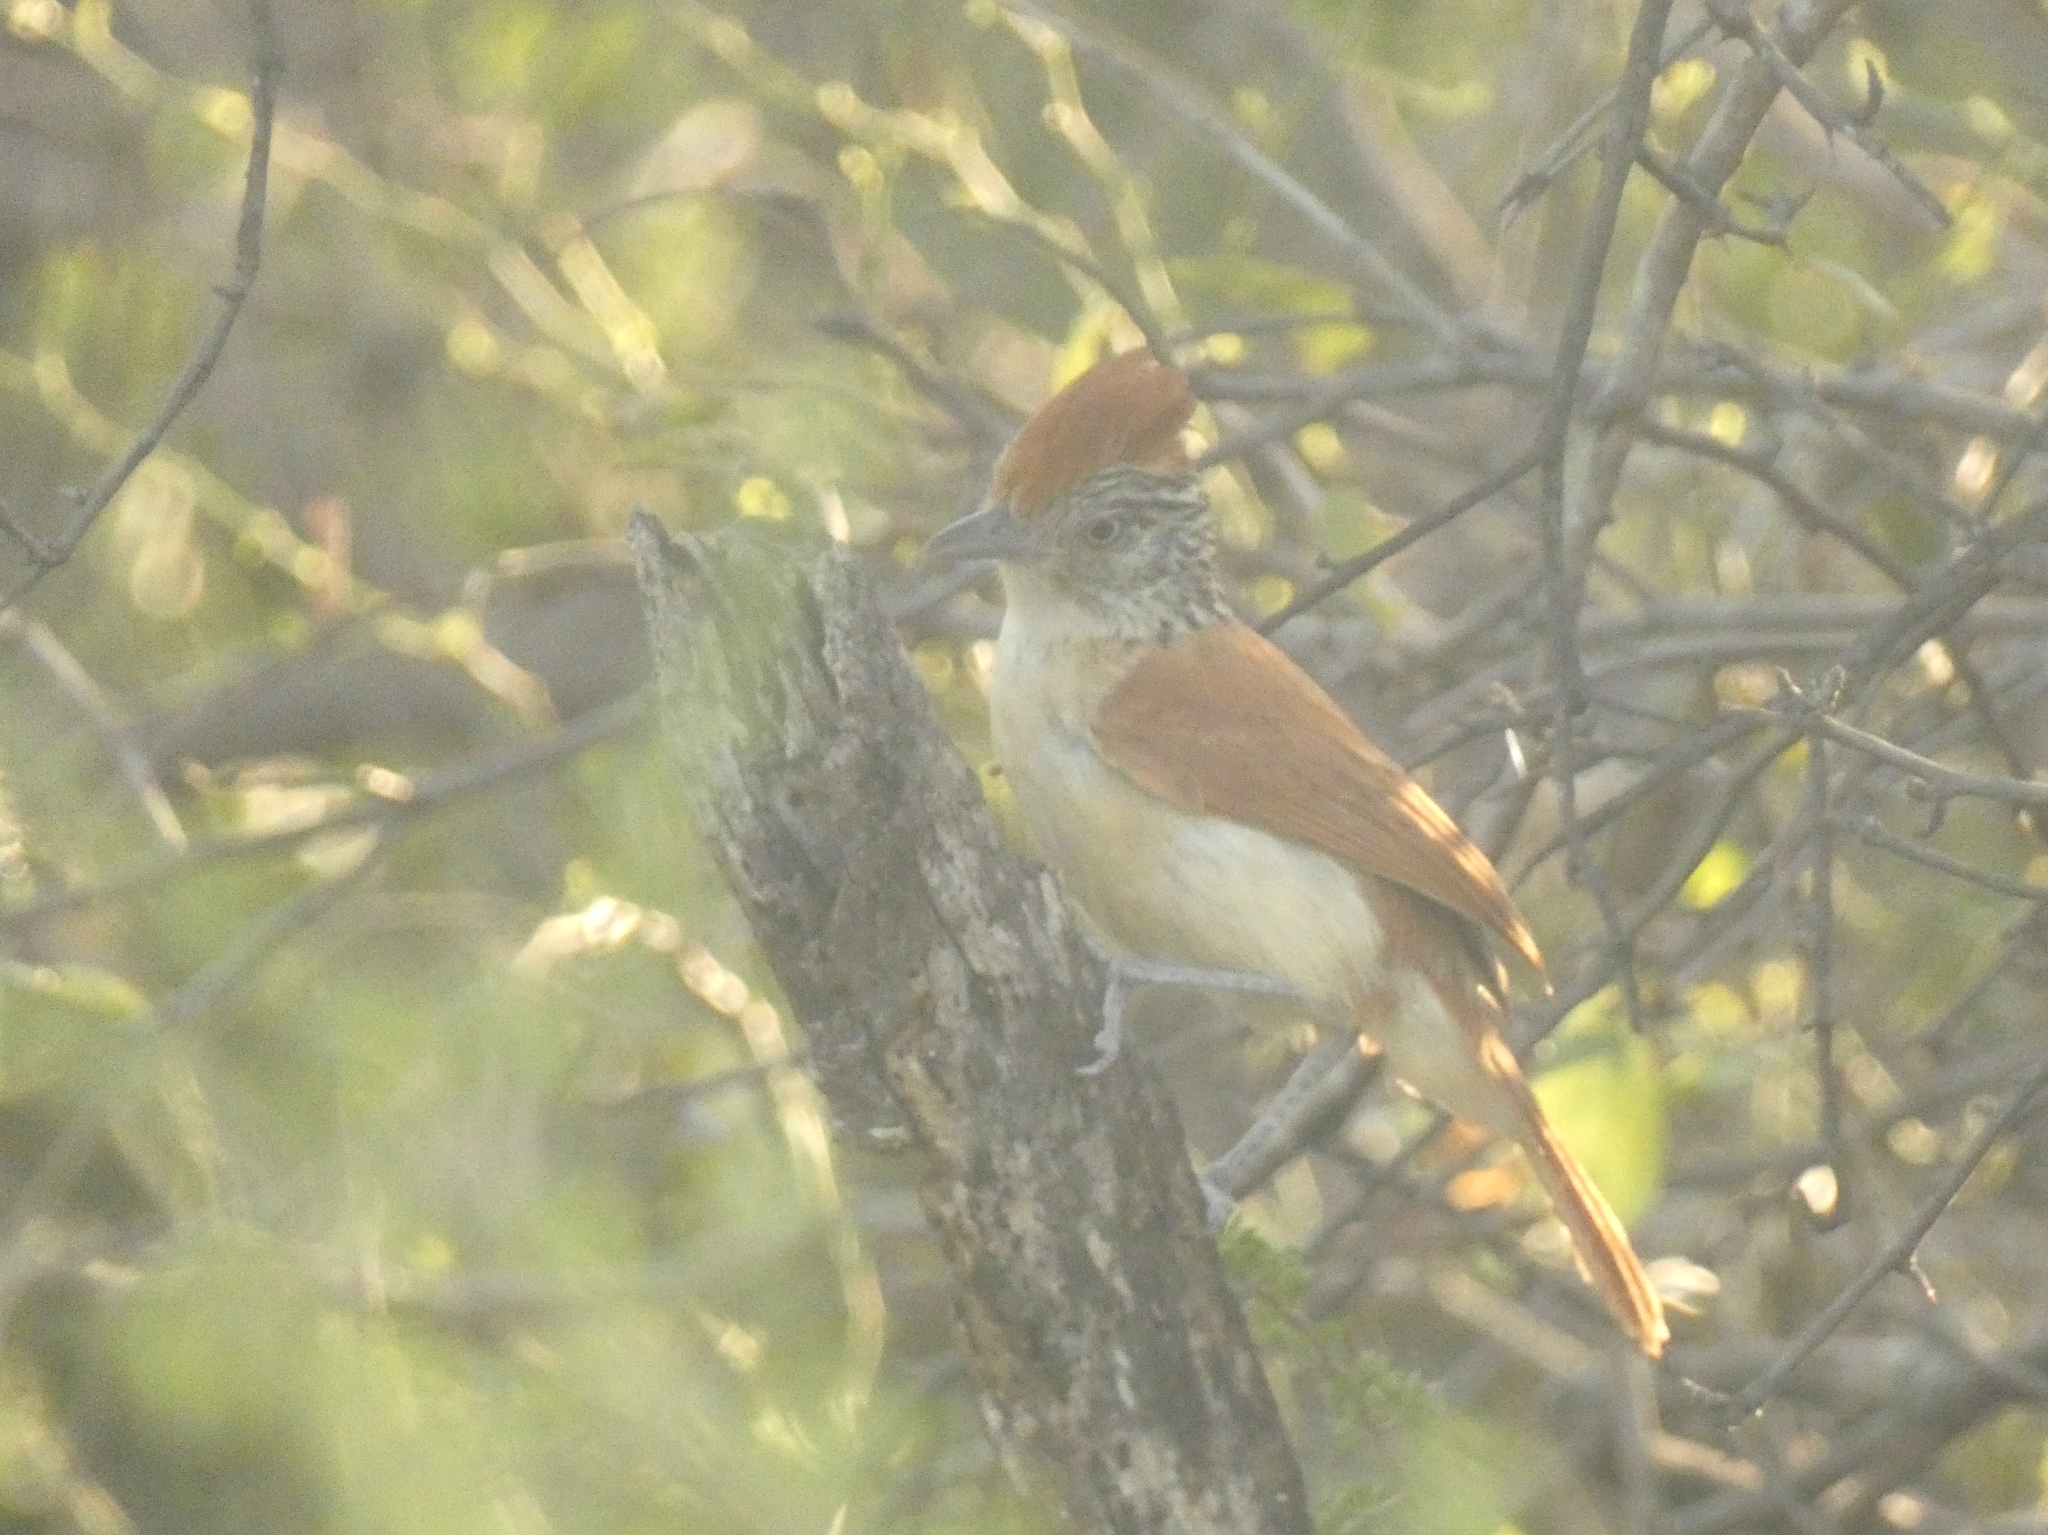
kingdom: Animalia
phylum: Chordata
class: Aves
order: Passeriformes
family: Thamnophilidae
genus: Thamnophilus
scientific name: Thamnophilus doliatus
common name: Barred antshrike
